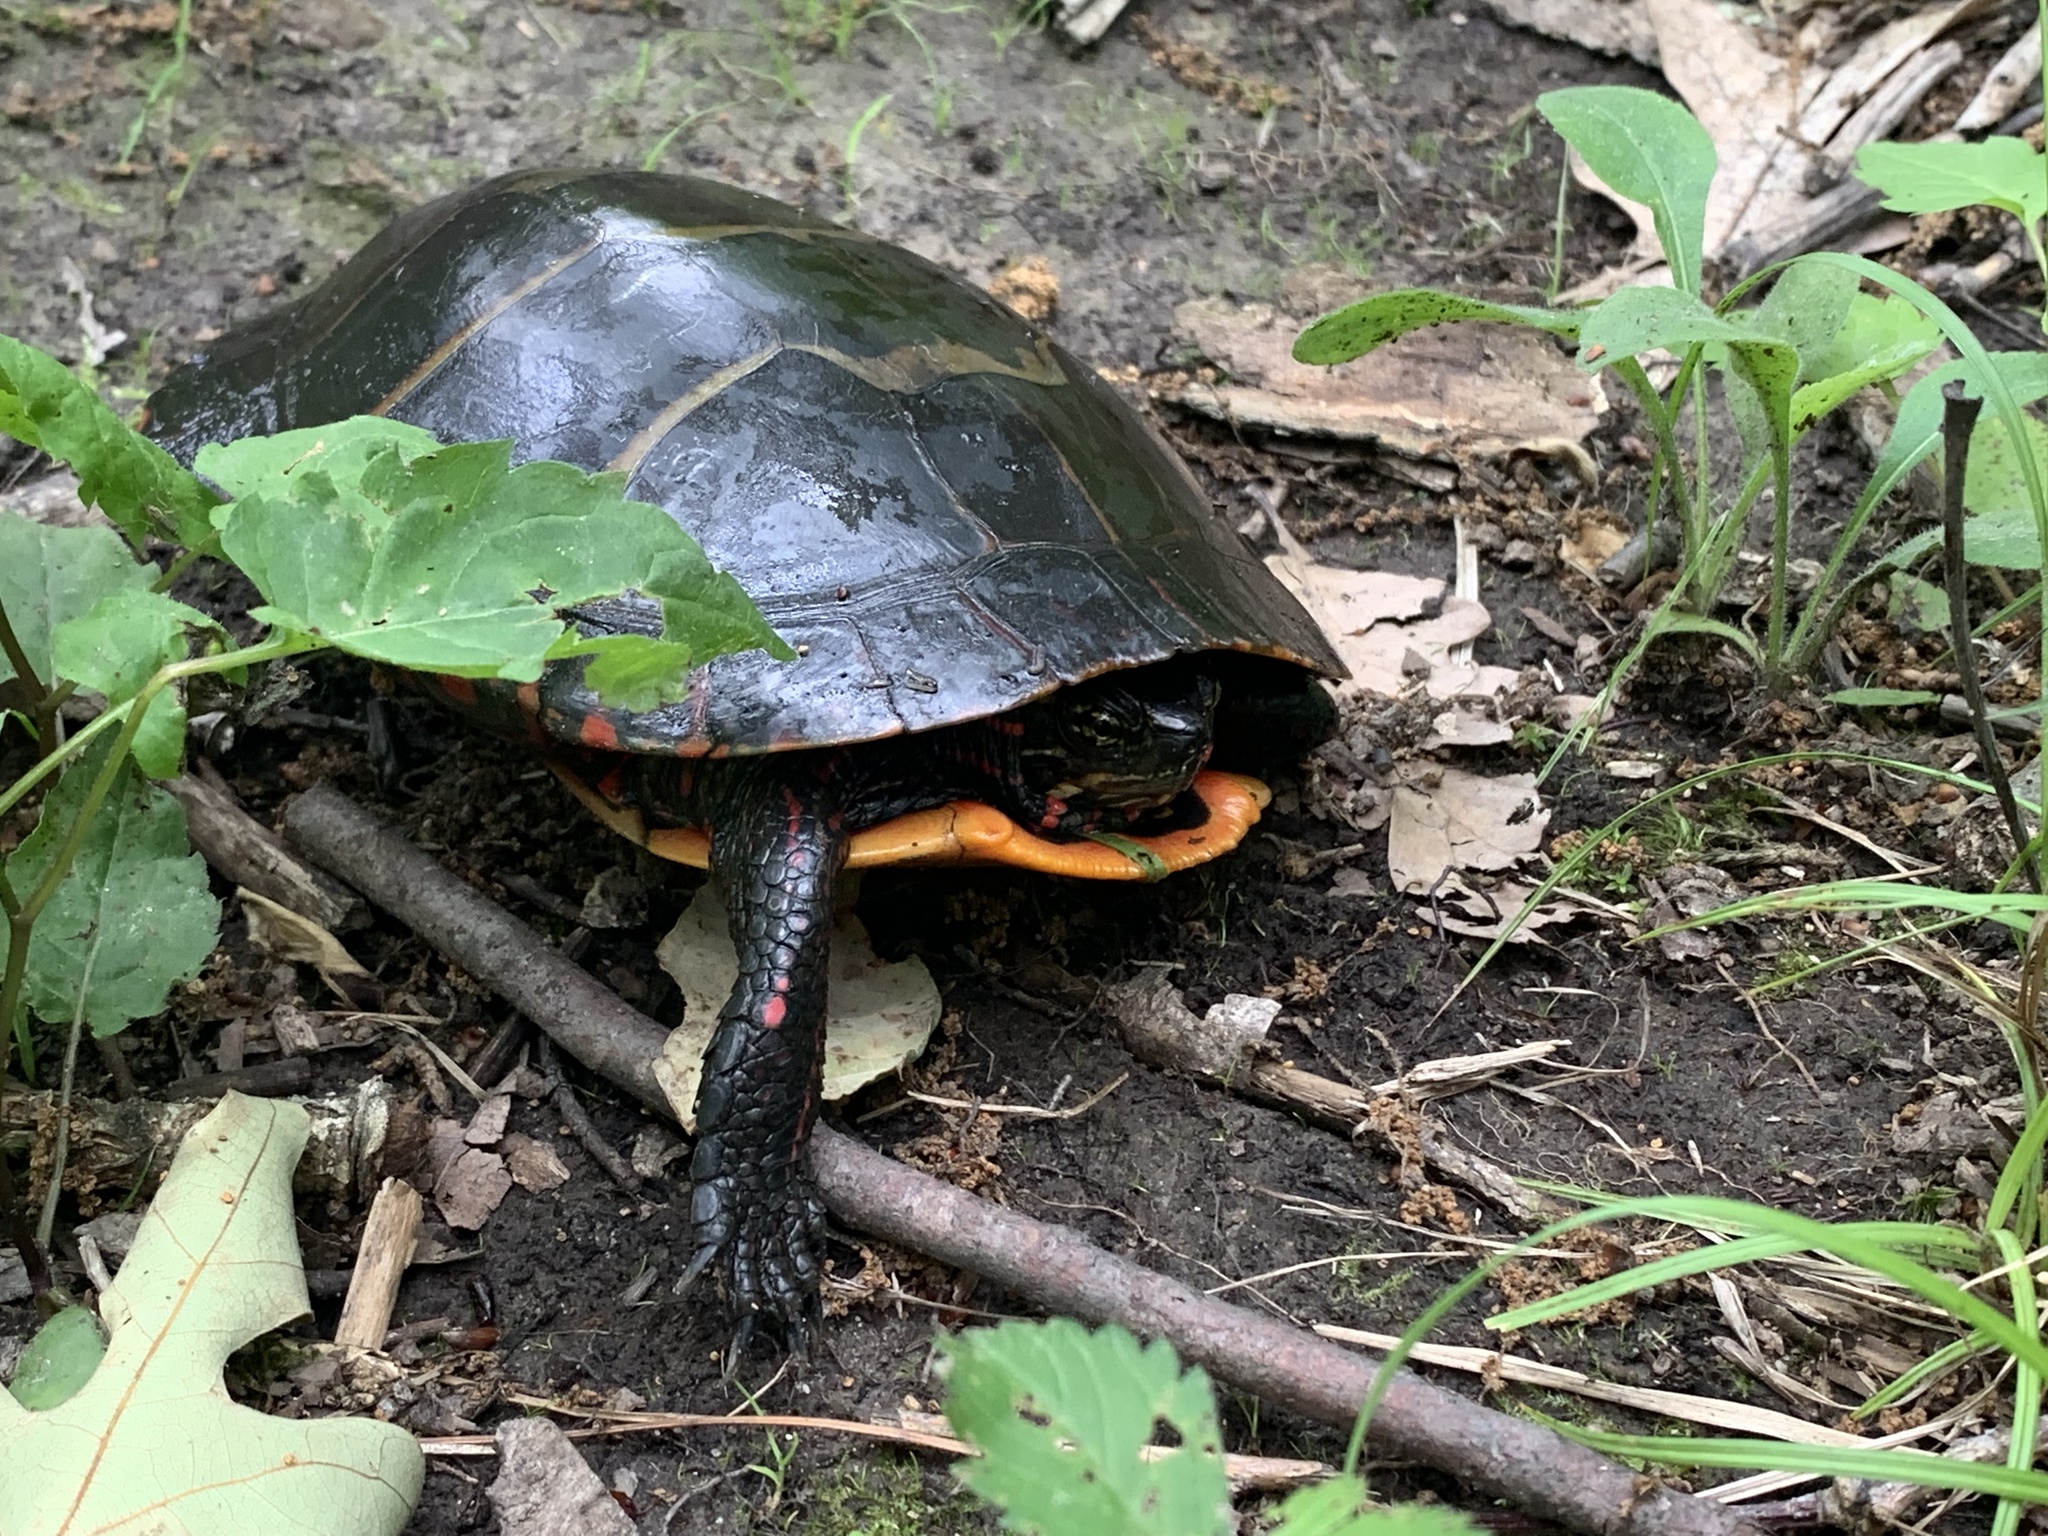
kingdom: Animalia
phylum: Chordata
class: Testudines
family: Emydidae
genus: Chrysemys
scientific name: Chrysemys picta
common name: Painted turtle
